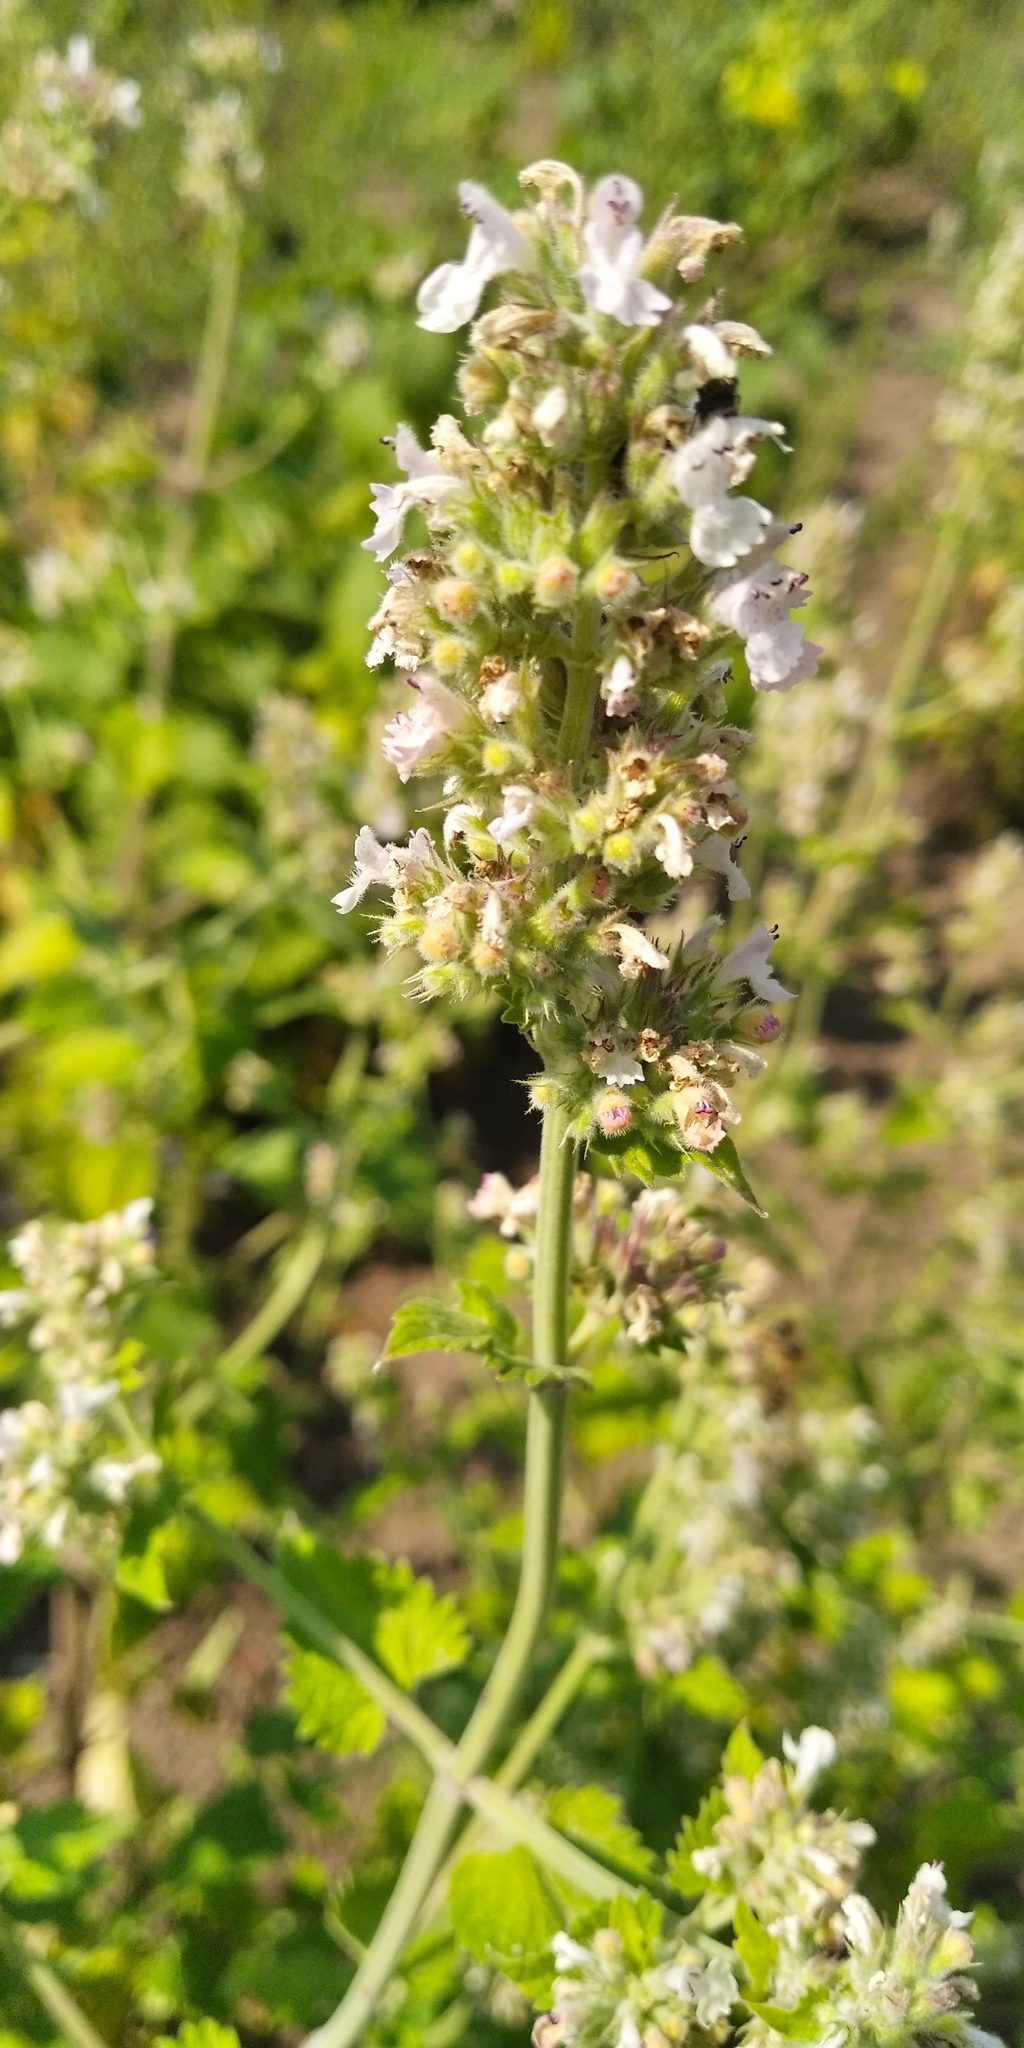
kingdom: Plantae
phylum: Tracheophyta
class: Magnoliopsida
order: Lamiales
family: Lamiaceae
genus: Nepeta
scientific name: Nepeta cataria
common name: Catnip
